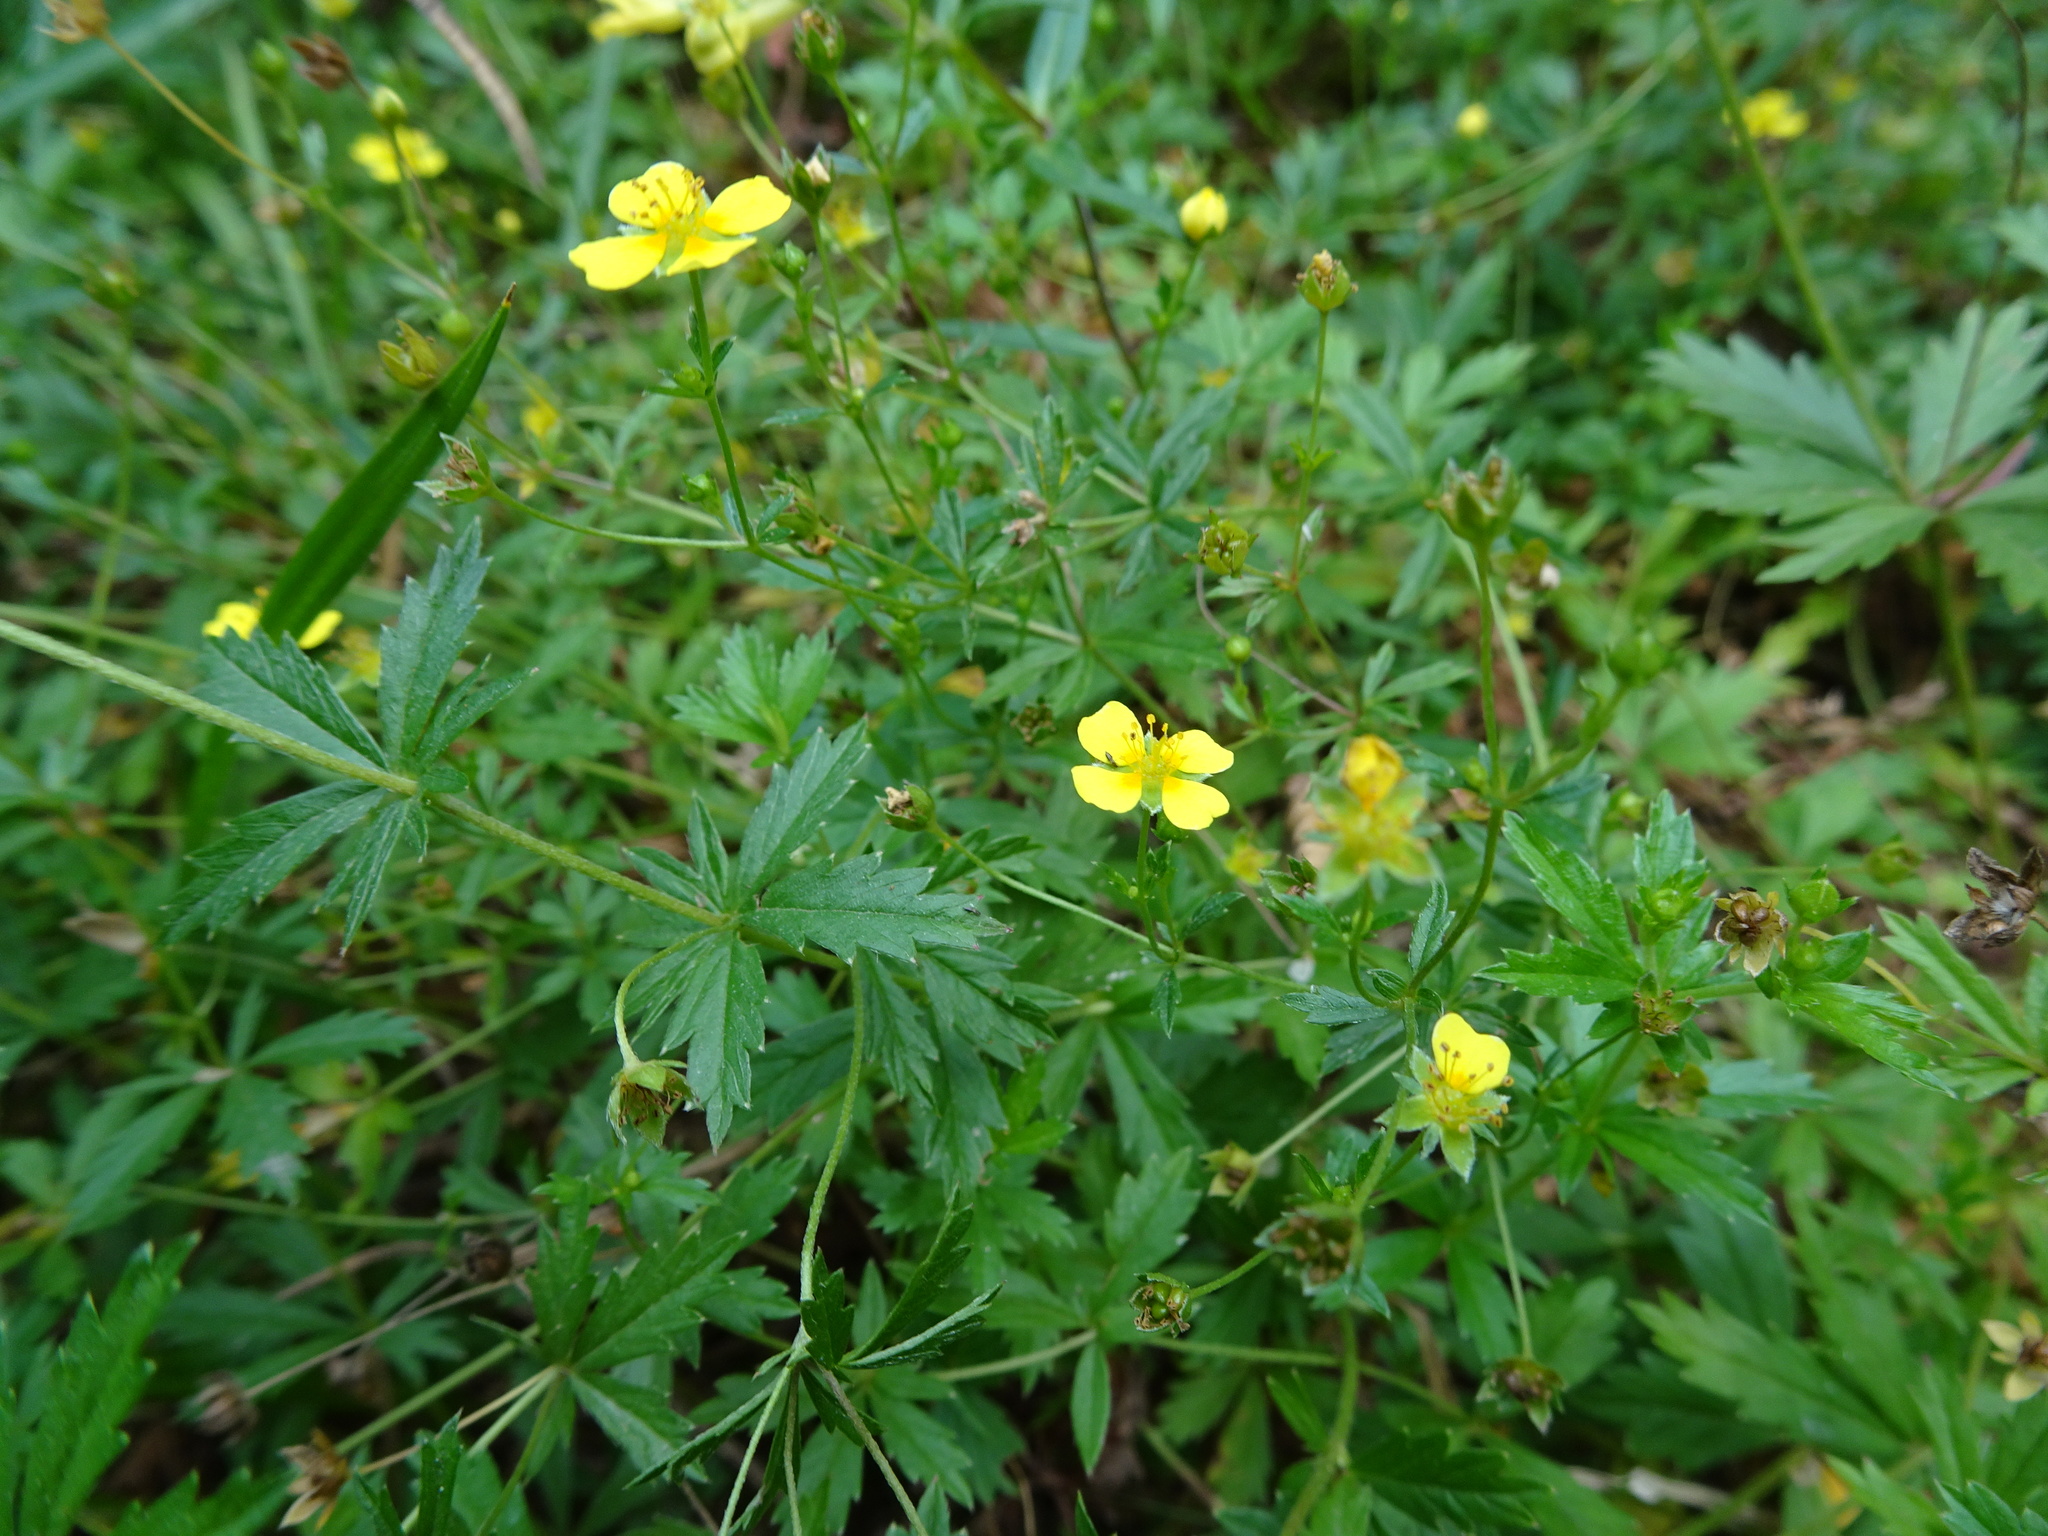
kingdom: Plantae
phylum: Tracheophyta
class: Magnoliopsida
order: Rosales
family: Rosaceae
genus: Potentilla
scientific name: Potentilla erecta
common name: Tormentil
